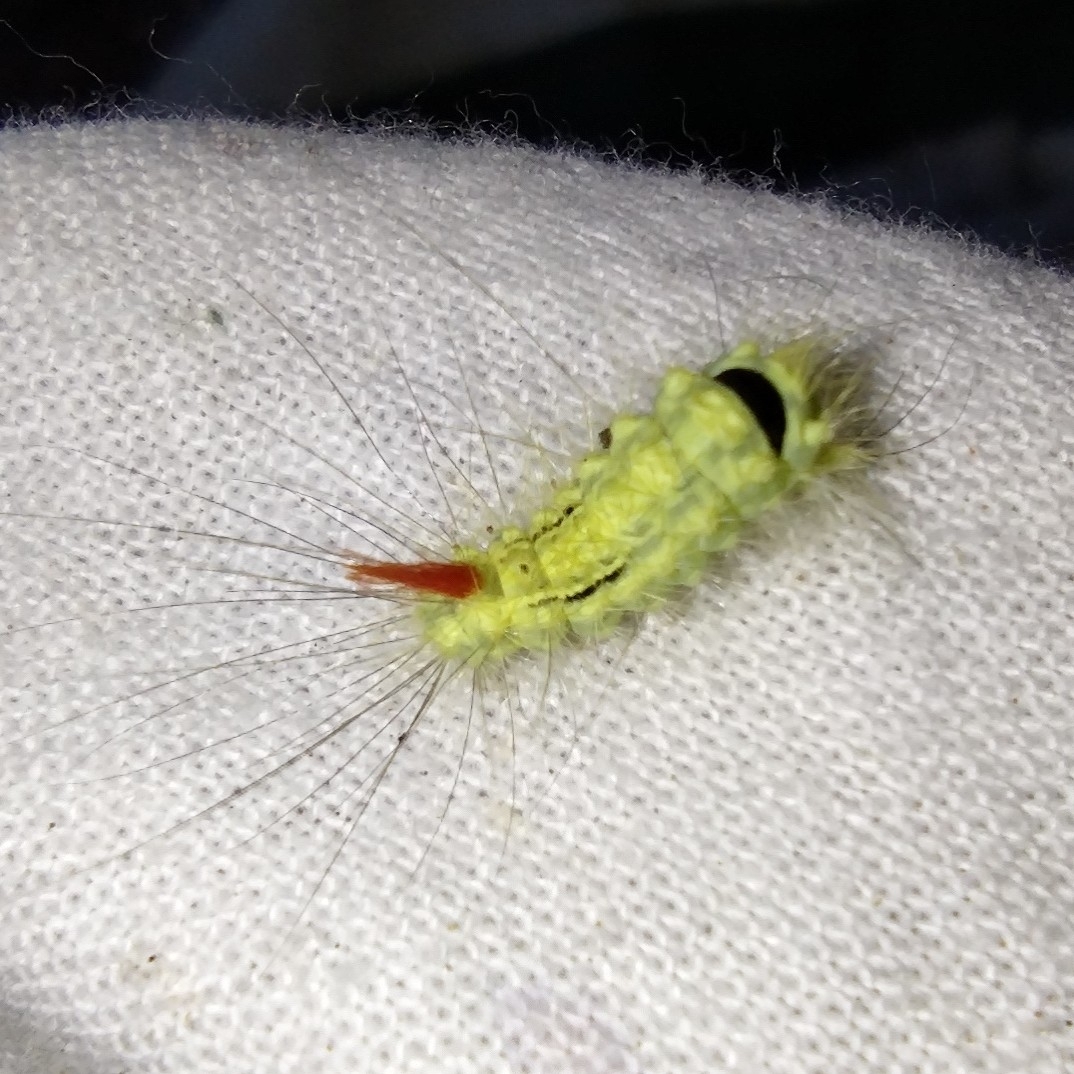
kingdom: Animalia
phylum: Arthropoda
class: Insecta
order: Lepidoptera
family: Erebidae
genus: Calliteara
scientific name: Calliteara pudibunda
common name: Pale tussock
